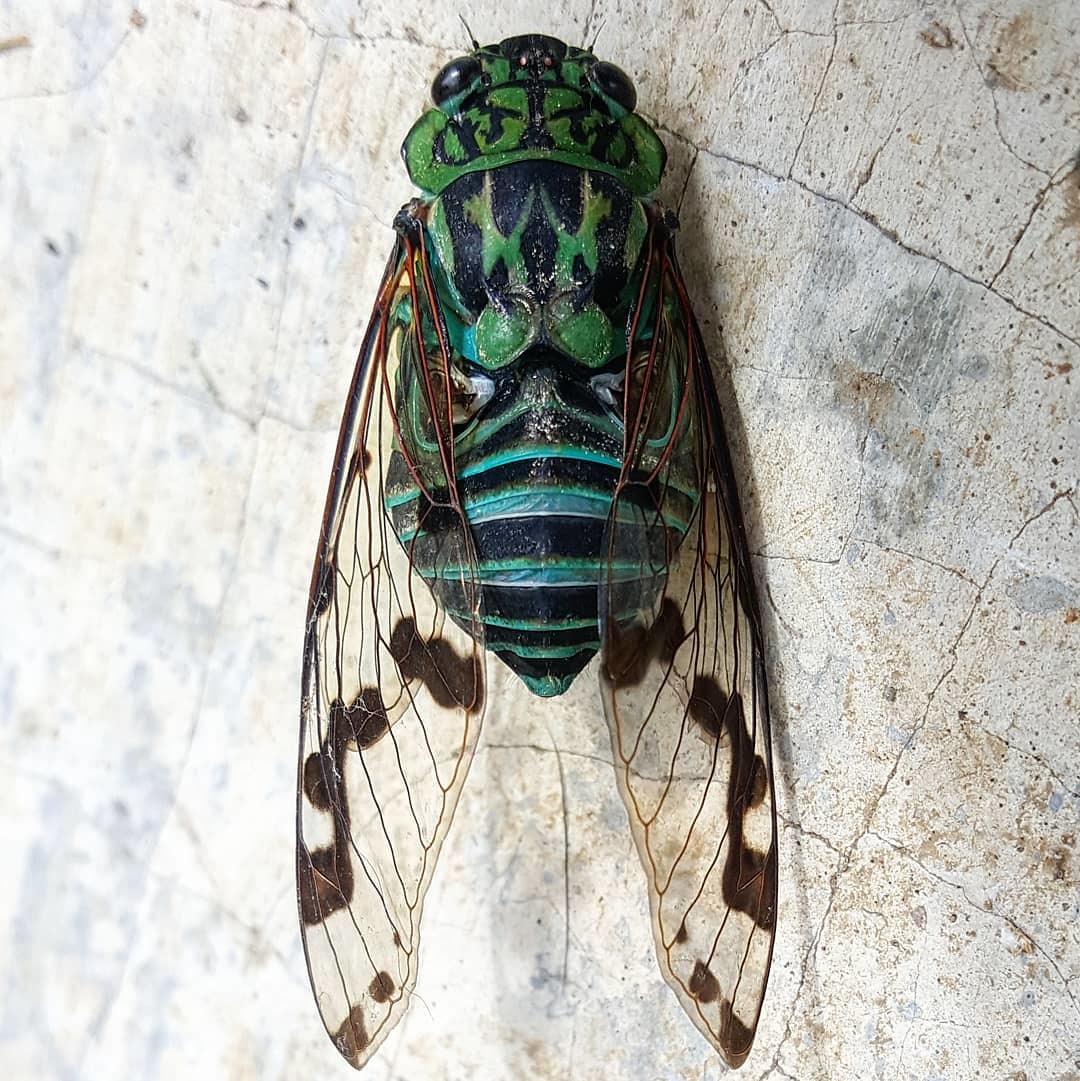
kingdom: Animalia
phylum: Arthropoda
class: Insecta
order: Hemiptera
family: Cicadidae
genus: Zammara
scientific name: Zammara calochroma
